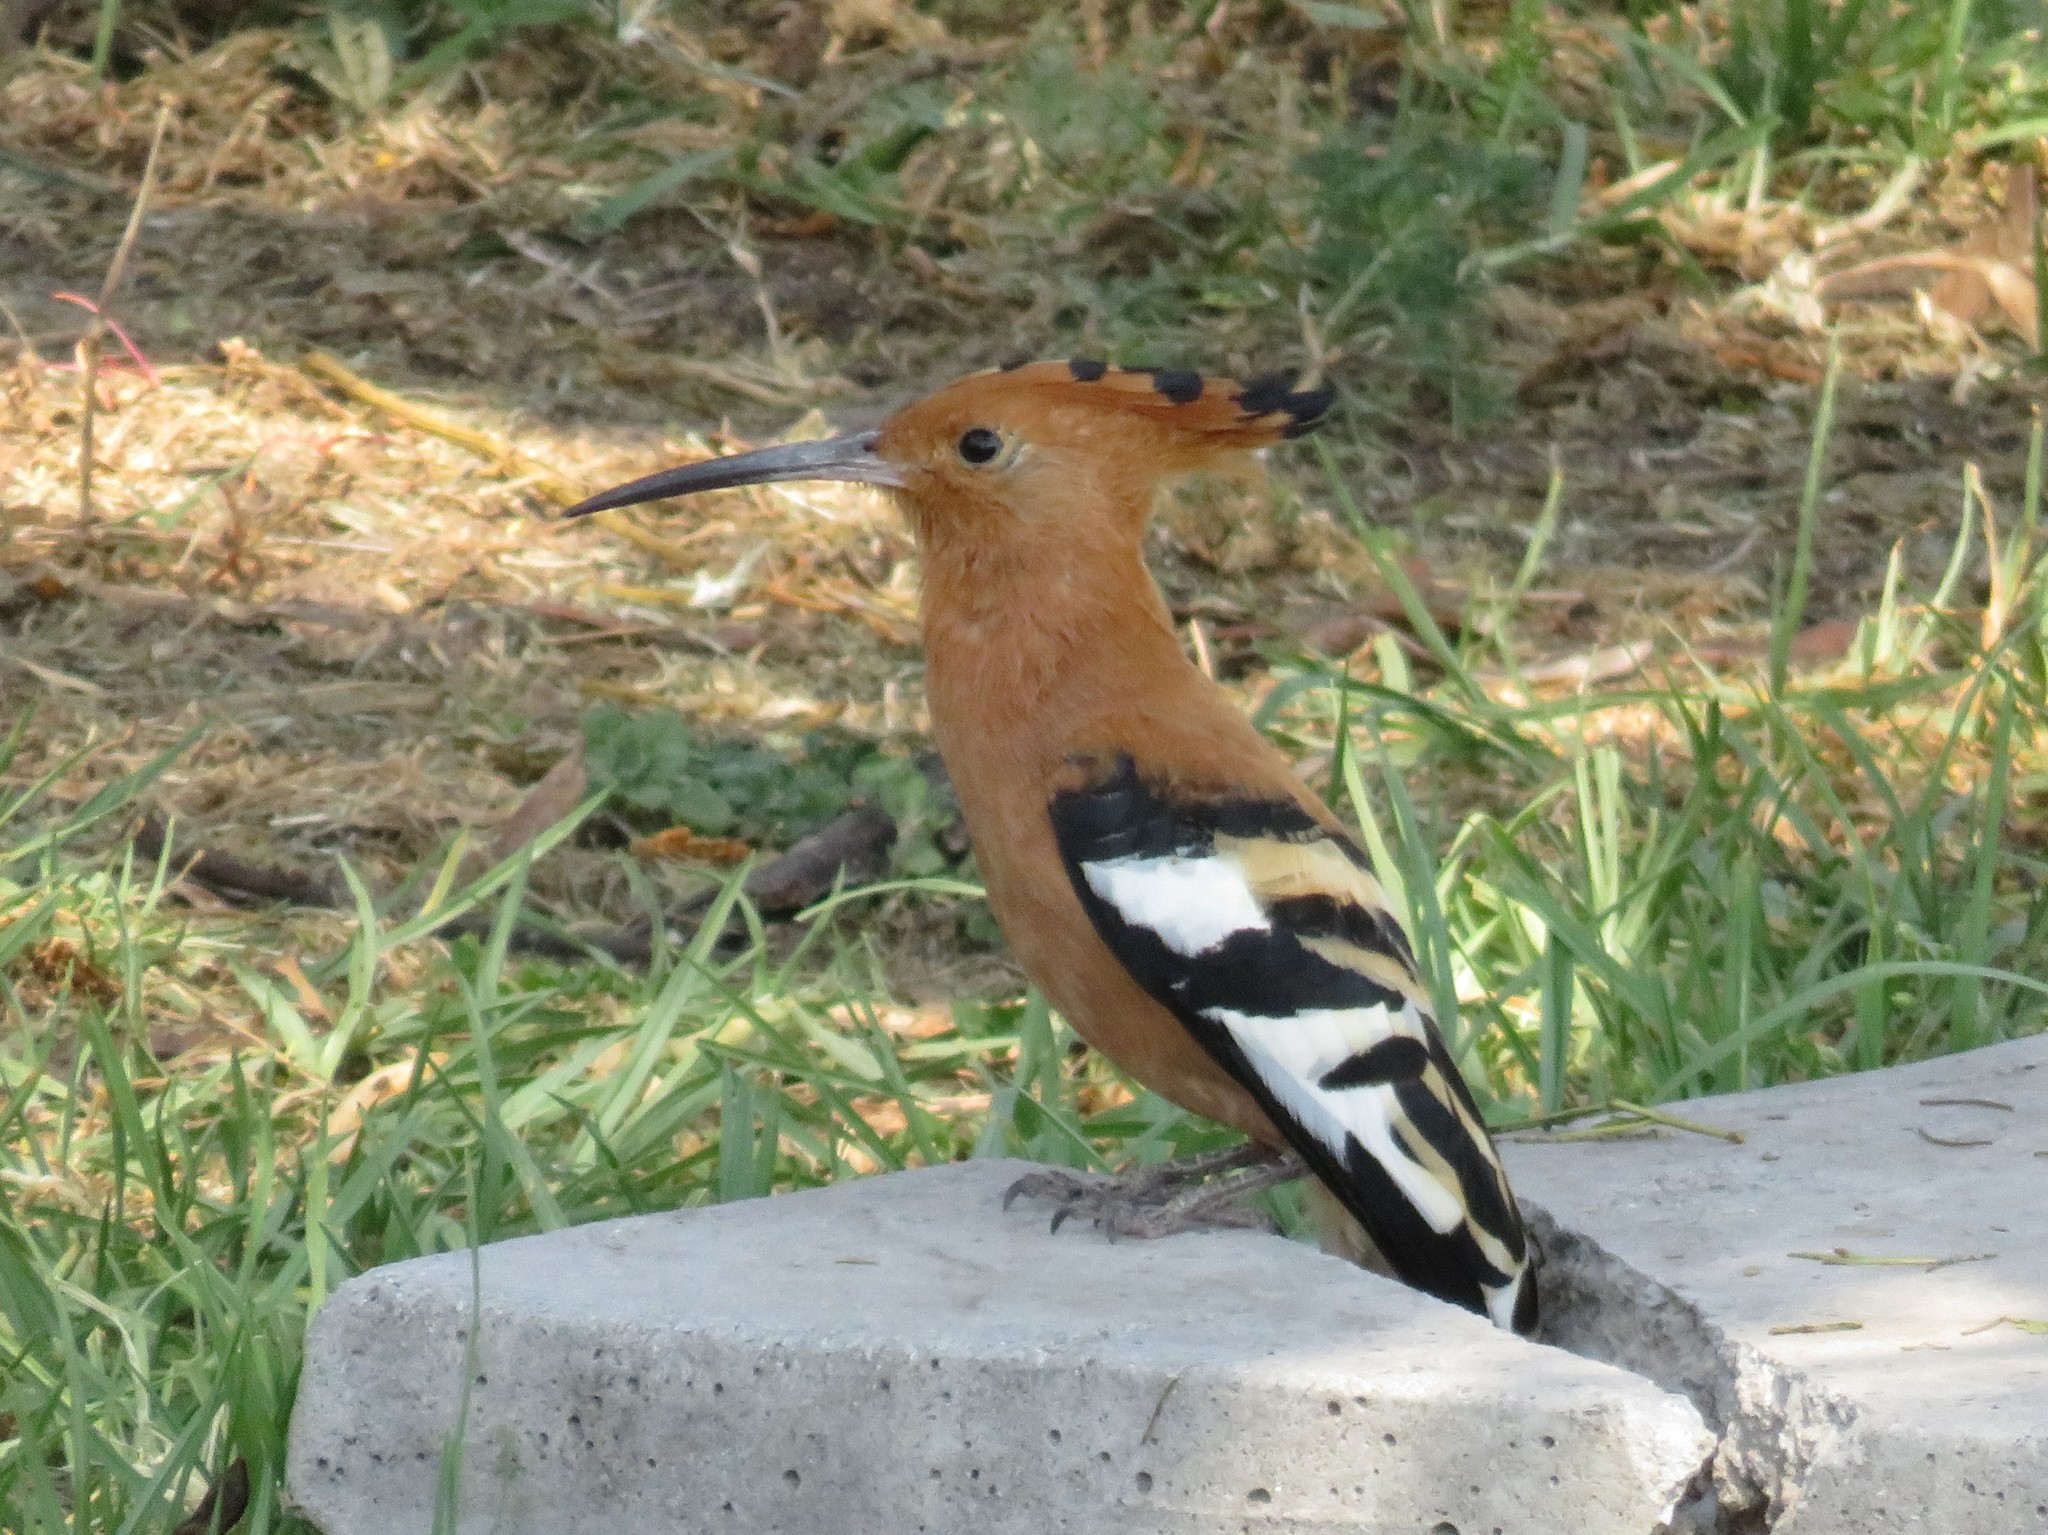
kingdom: Animalia
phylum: Chordata
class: Aves
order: Bucerotiformes
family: Upupidae
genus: Upupa
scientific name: Upupa africana
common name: African hoopoe
